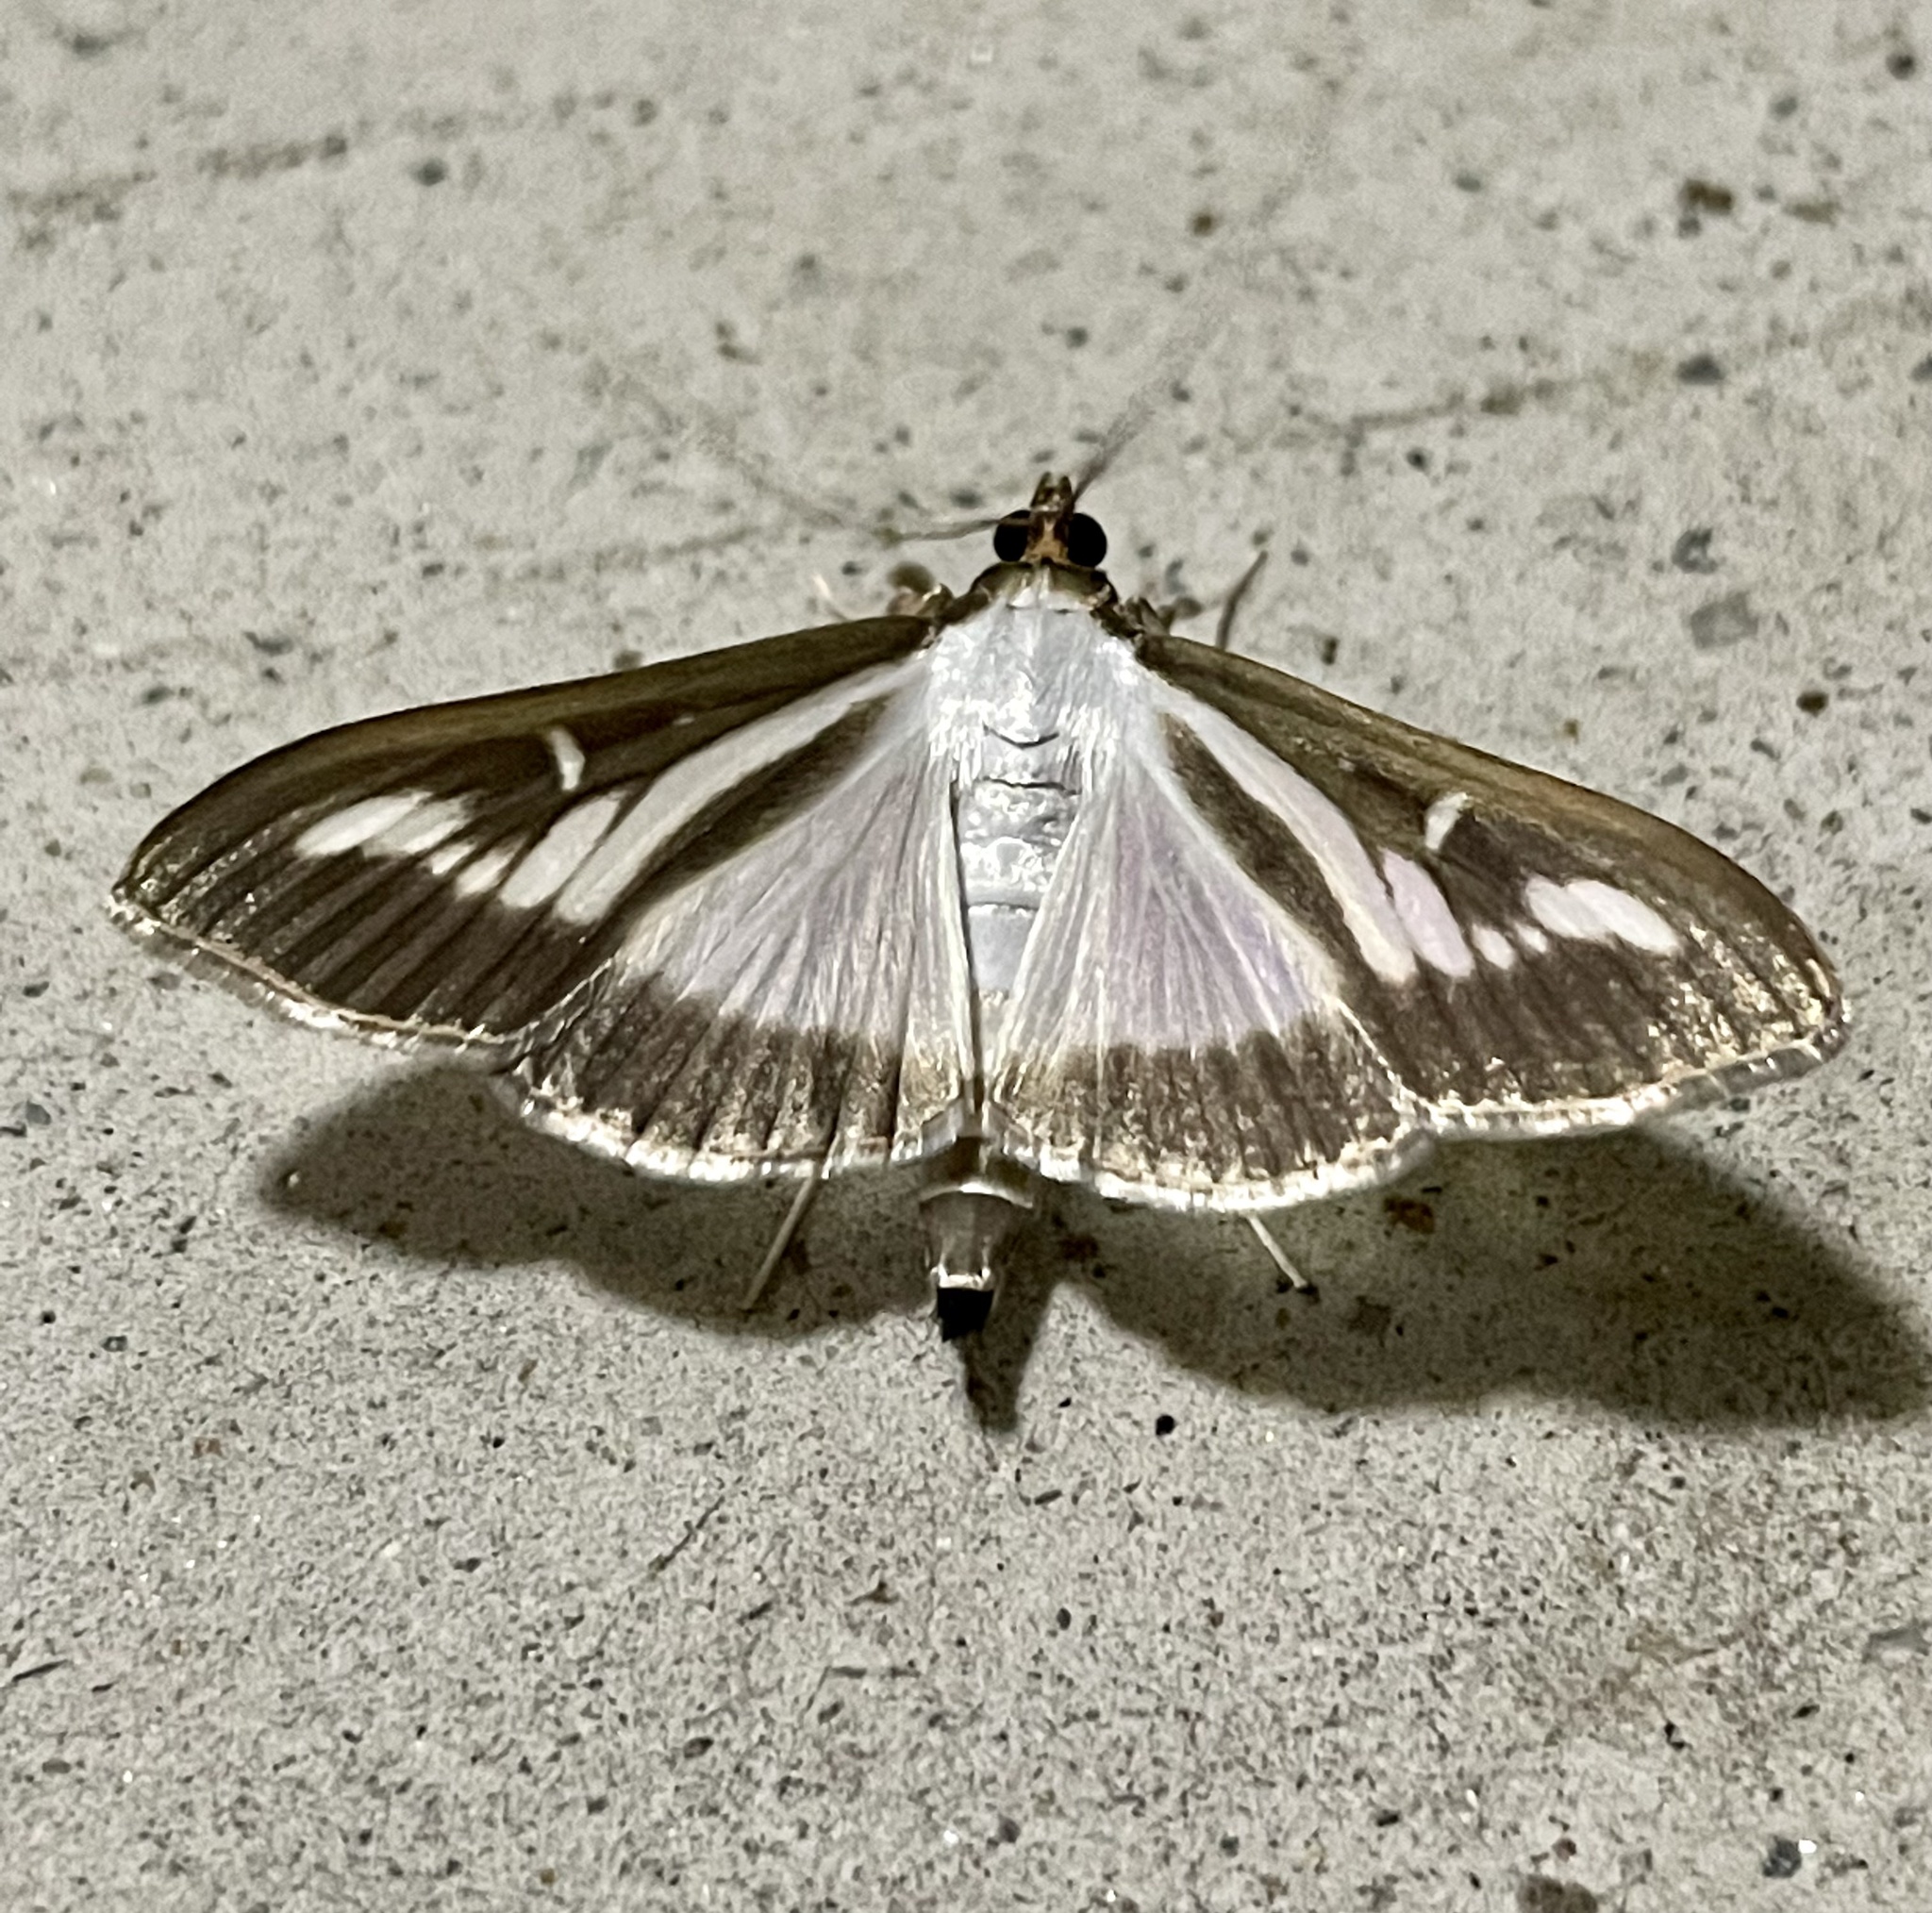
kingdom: Animalia
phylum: Arthropoda
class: Insecta
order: Lepidoptera
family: Crambidae
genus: Cydalima
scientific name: Cydalima perspectalis
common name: Box tree moth
